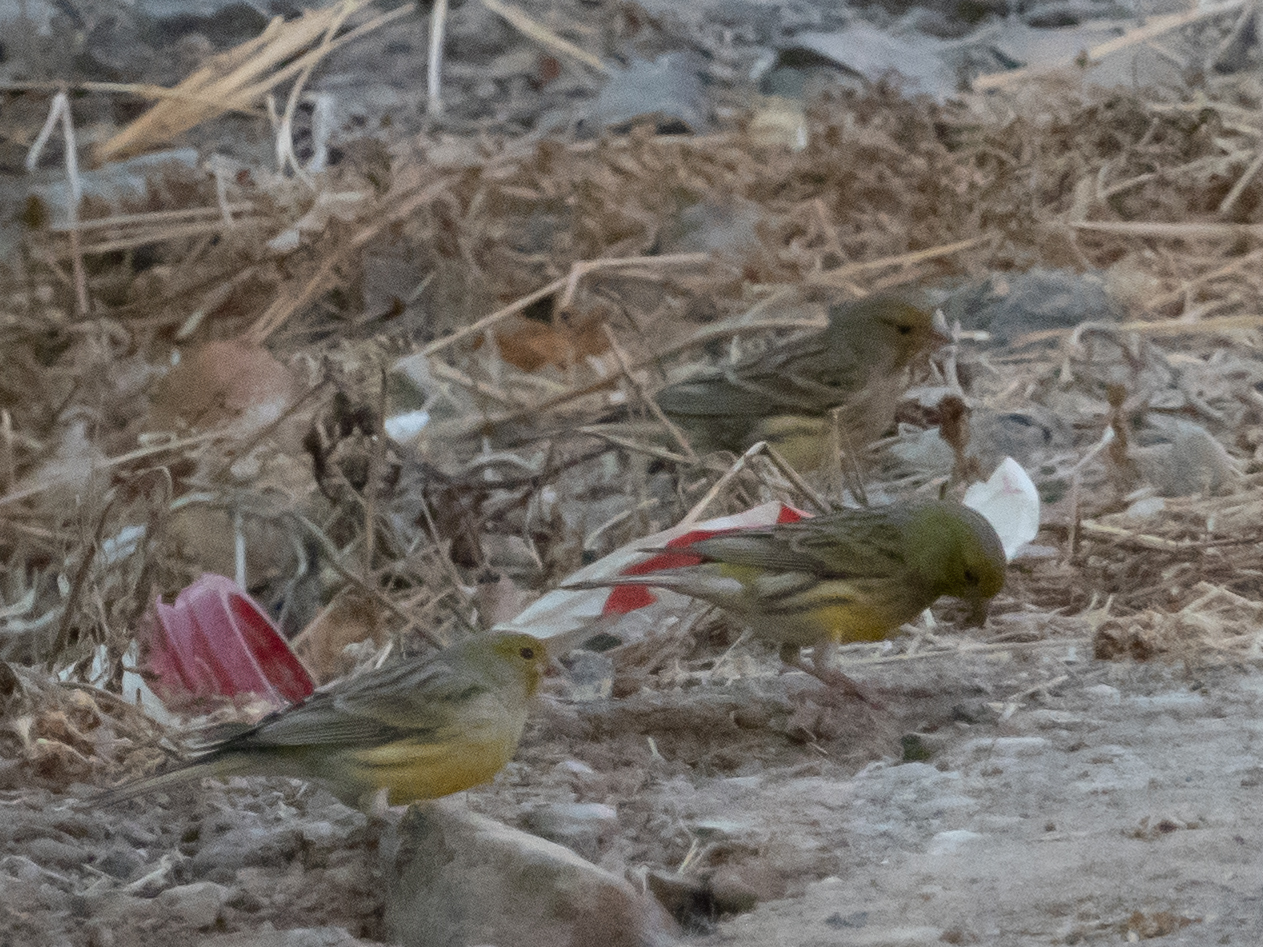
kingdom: Animalia
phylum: Chordata
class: Aves
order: Passeriformes
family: Fringillidae
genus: Serinus
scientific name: Serinus canaria
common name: Atlantic canary
